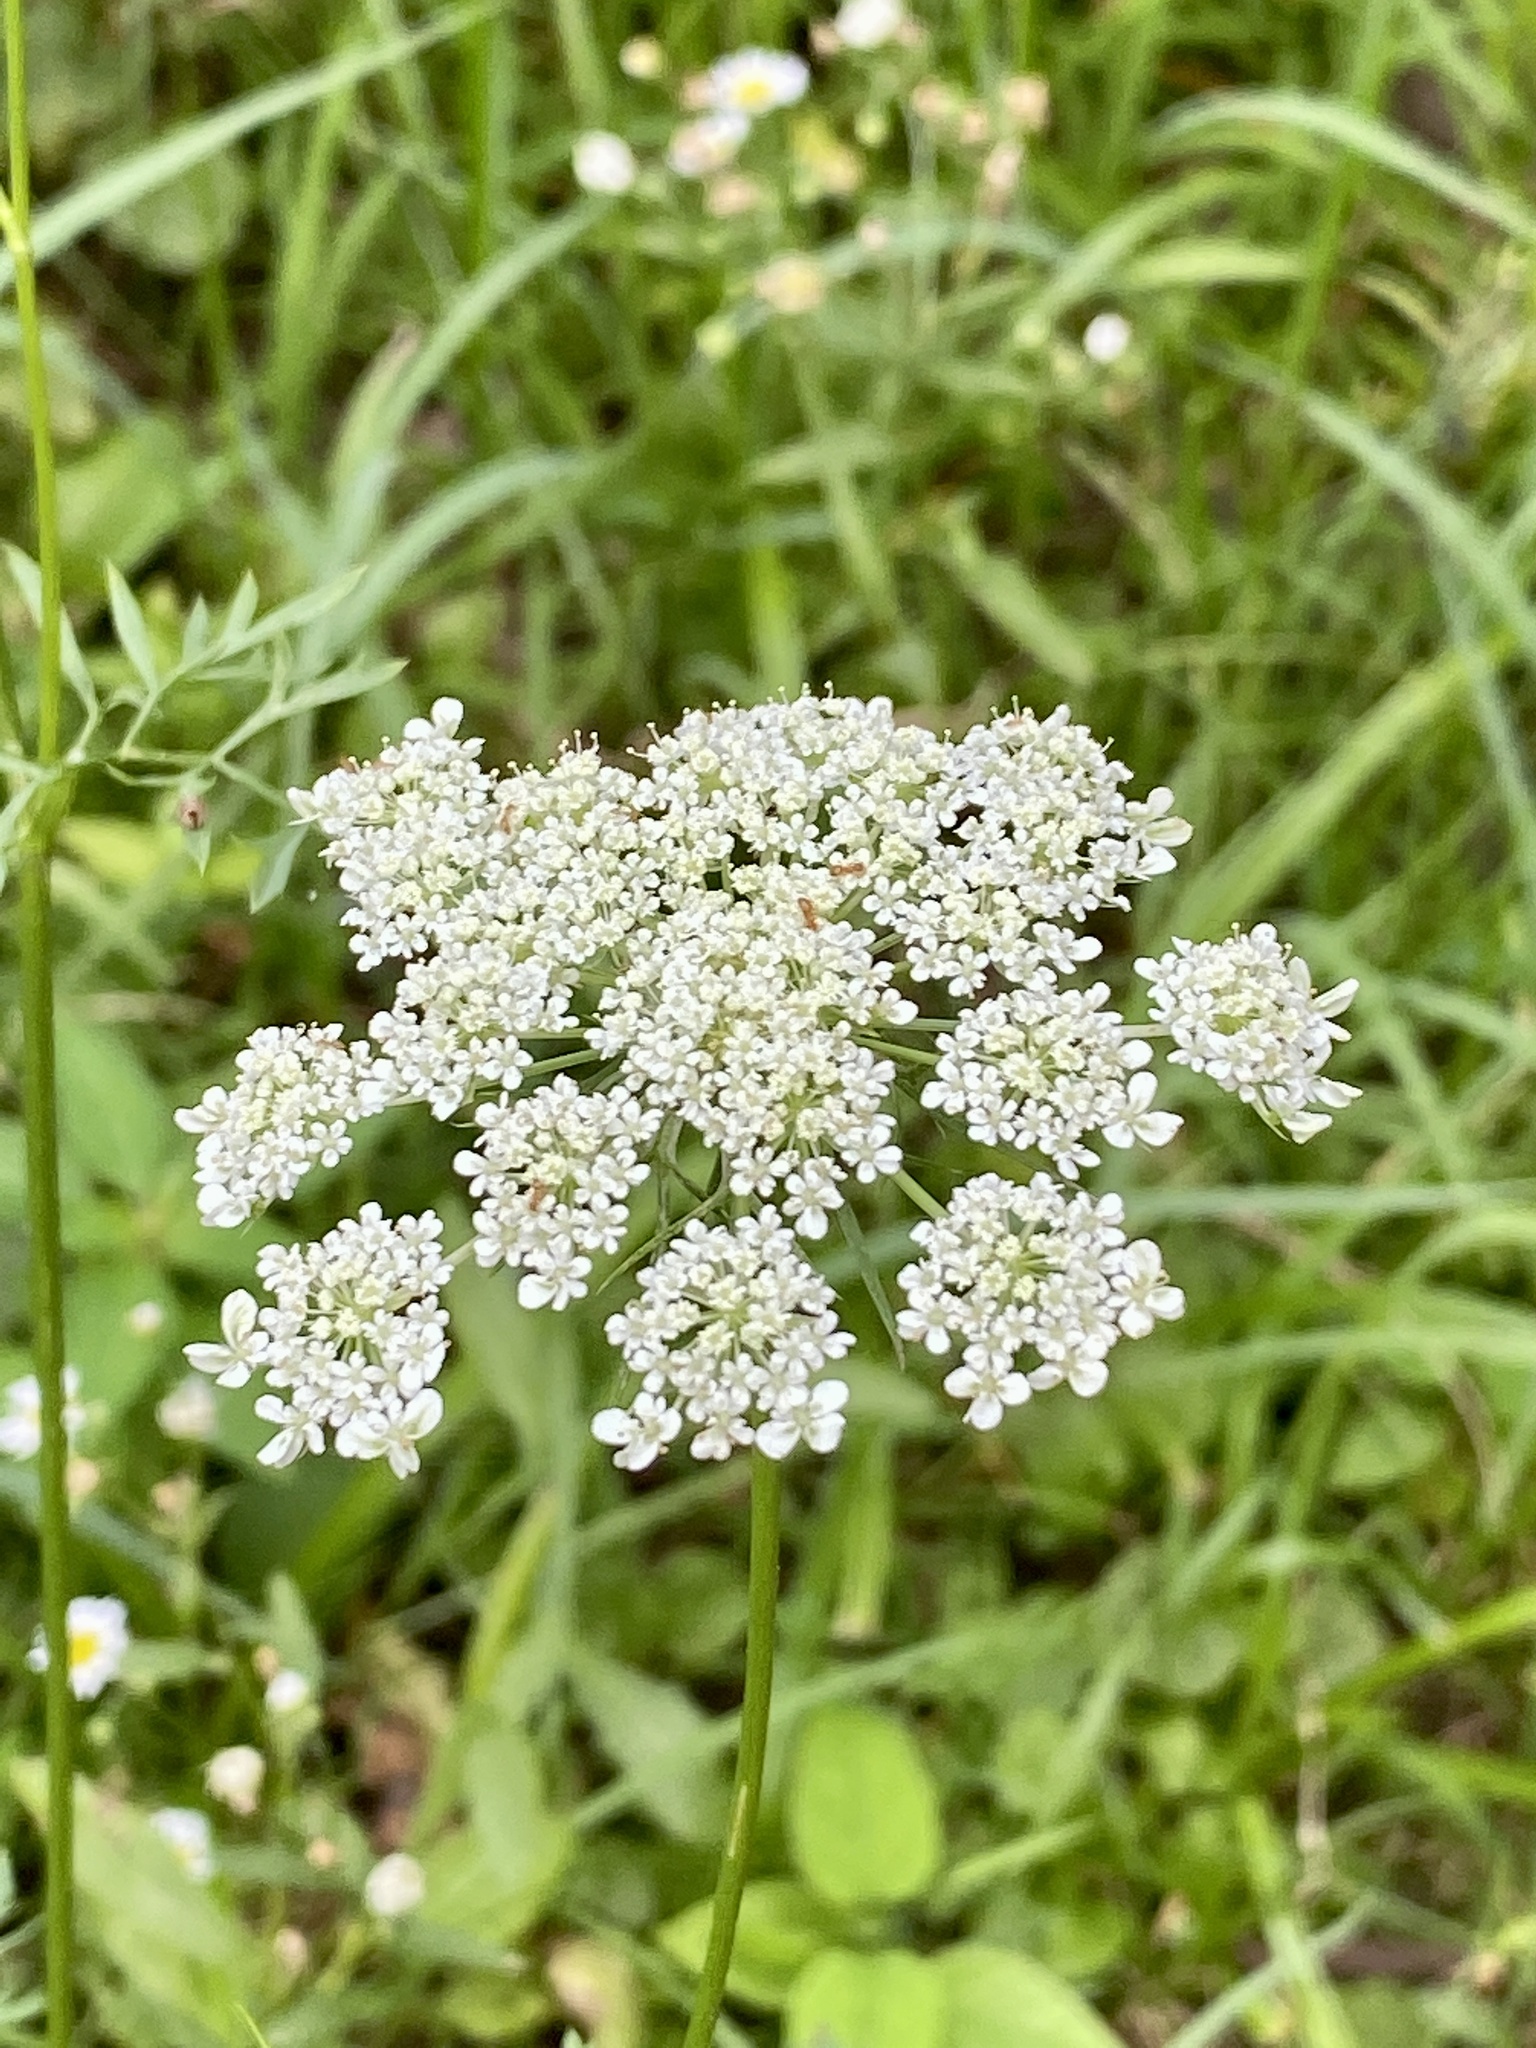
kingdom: Plantae
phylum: Tracheophyta
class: Magnoliopsida
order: Apiales
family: Apiaceae
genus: Daucus
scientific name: Daucus carota
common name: Wild carrot
